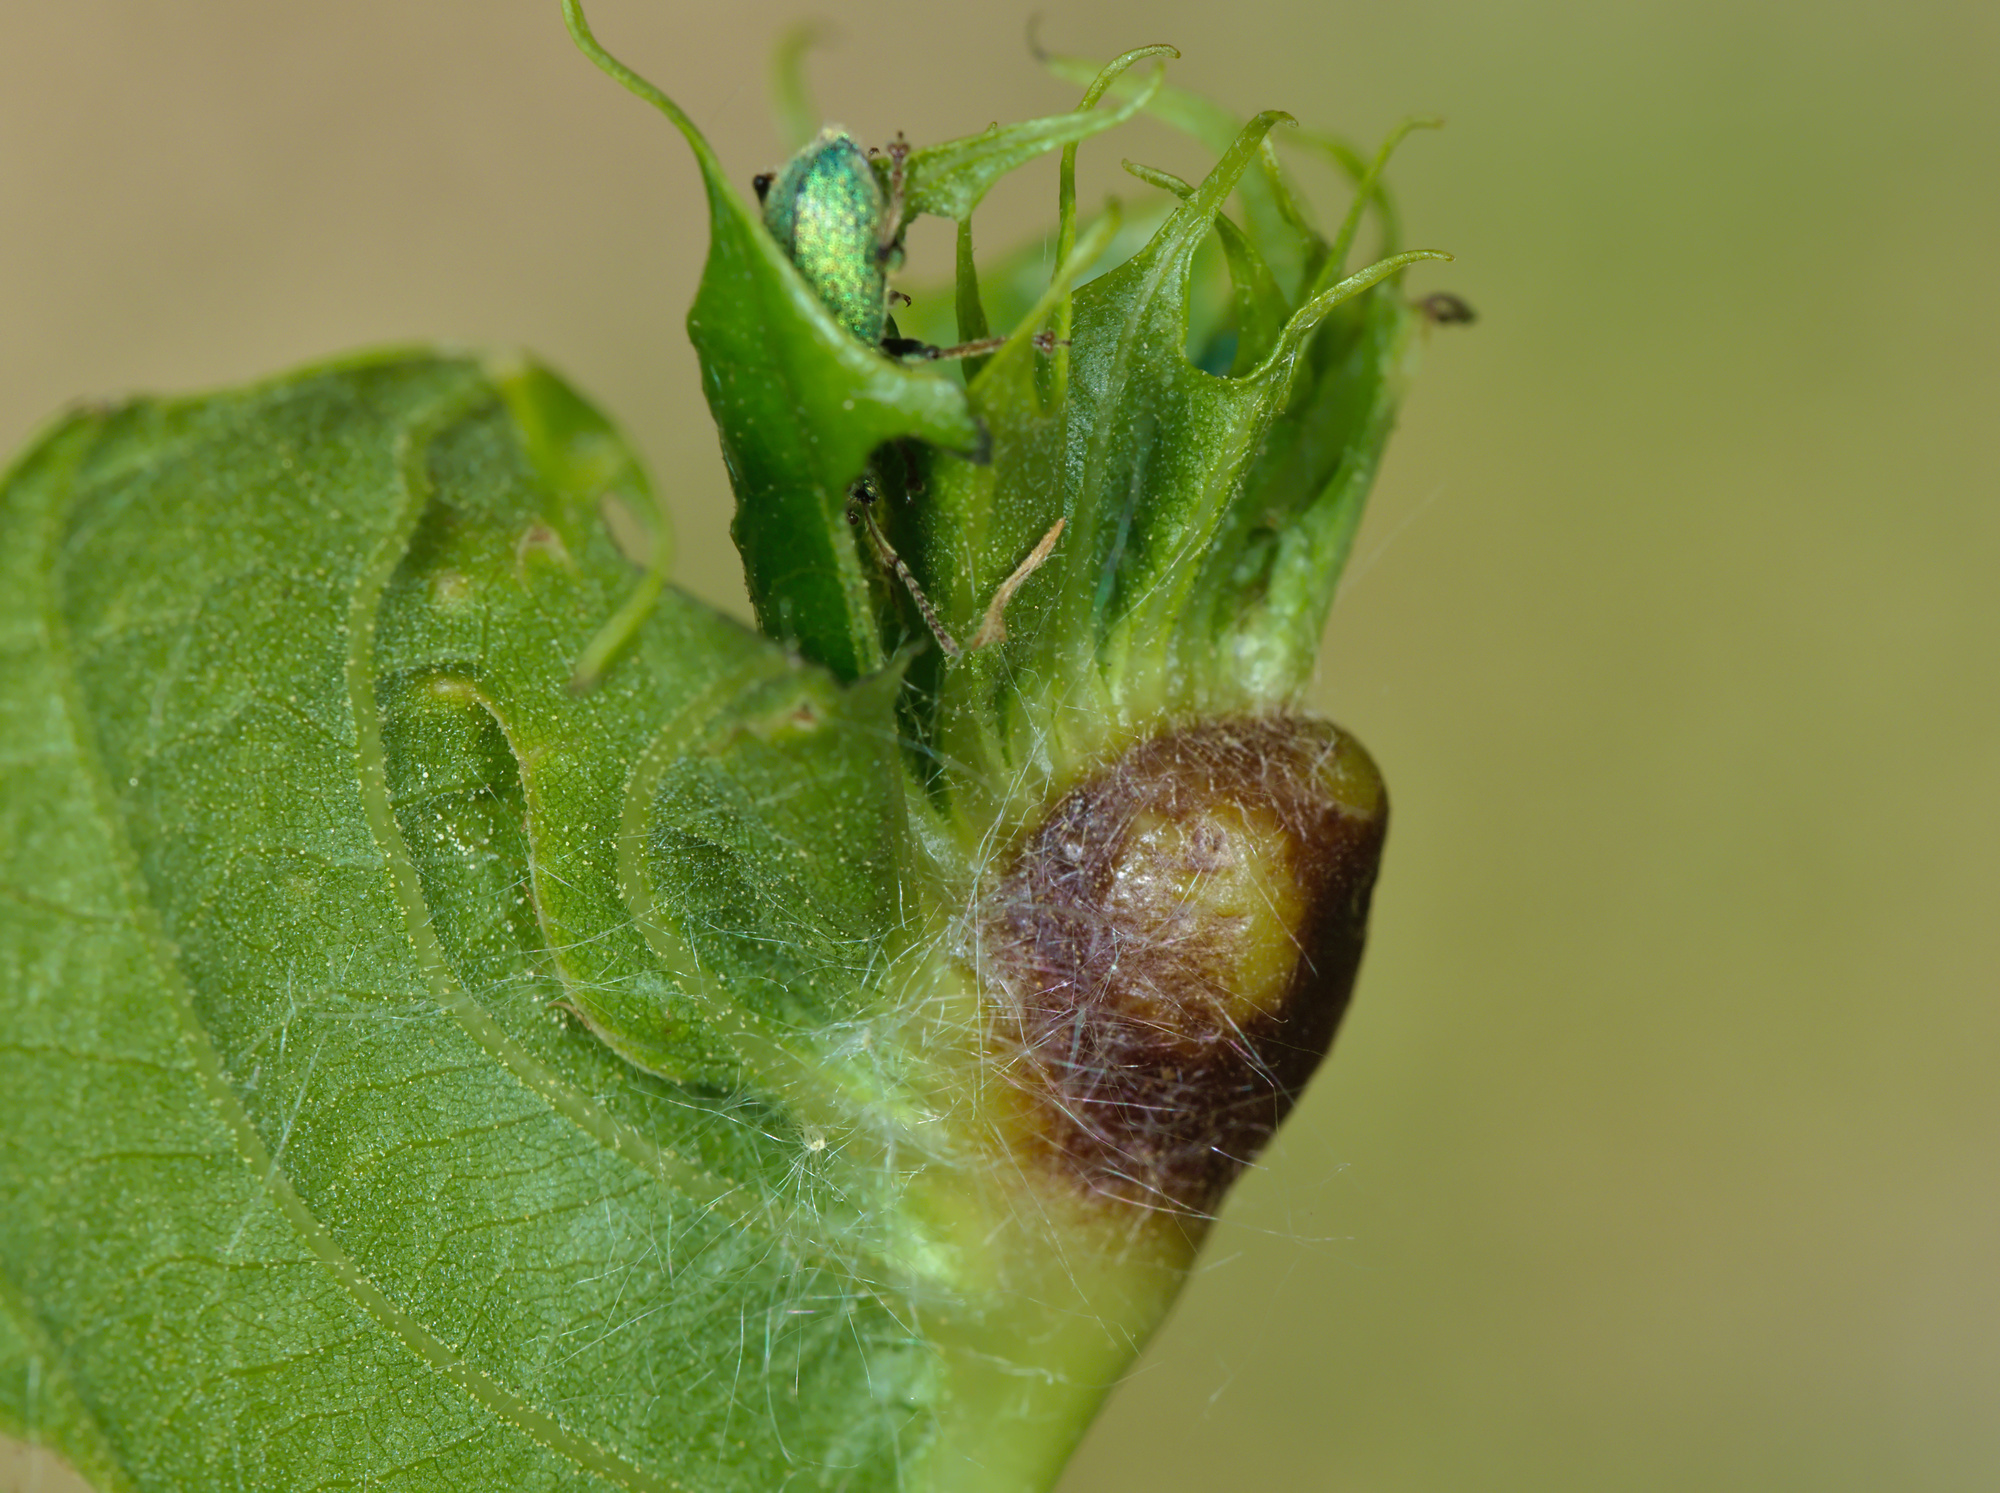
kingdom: Animalia
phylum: Arthropoda
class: Insecta
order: Hymenoptera
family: Cynipidae
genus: Dryocosmus
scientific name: Dryocosmus kuriphilus
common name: Asian chestnut gall wasp
